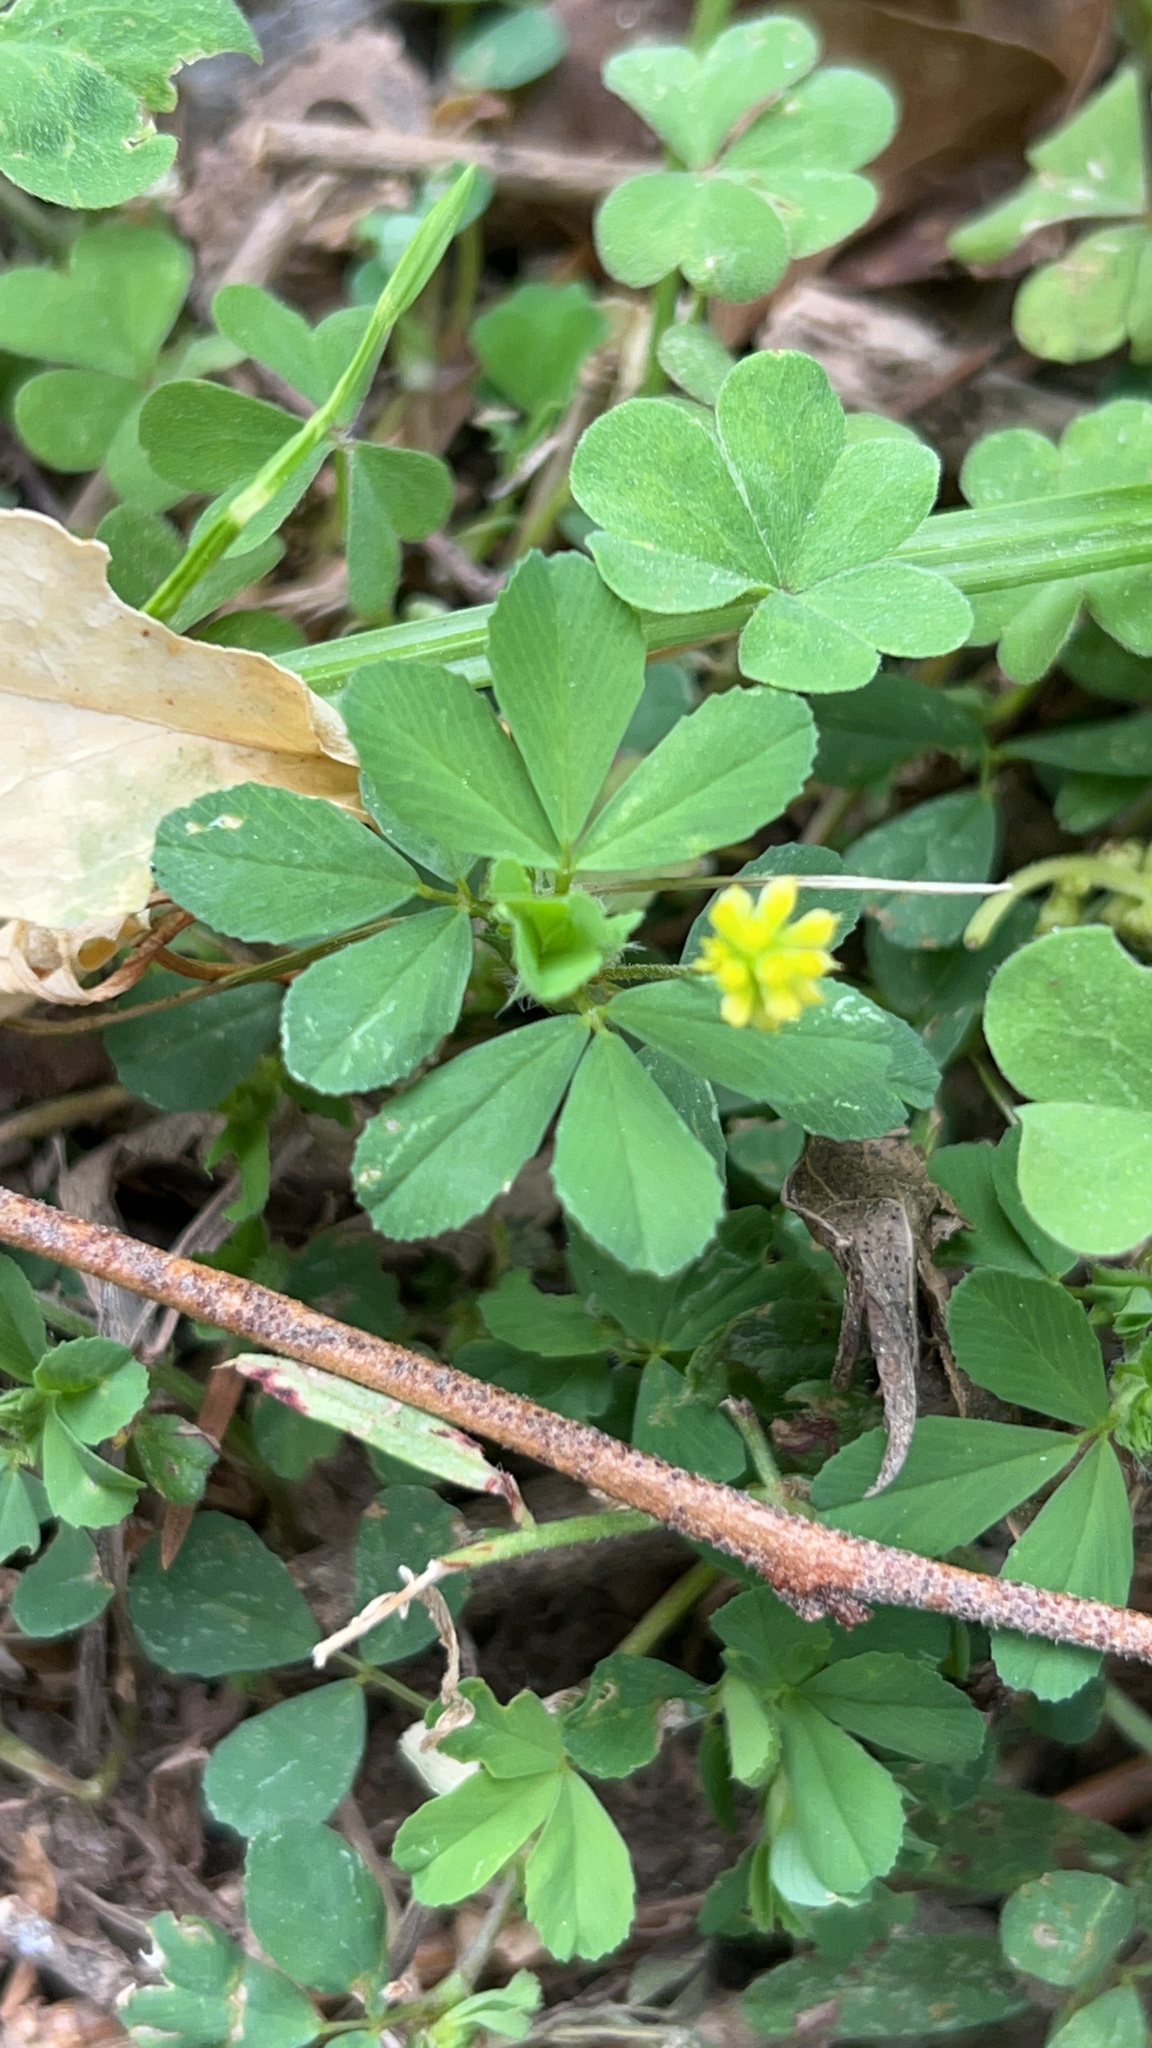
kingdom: Plantae
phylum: Tracheophyta
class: Magnoliopsida
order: Fabales
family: Fabaceae
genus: Trifolium
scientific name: Trifolium dubium
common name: Suckling clover
